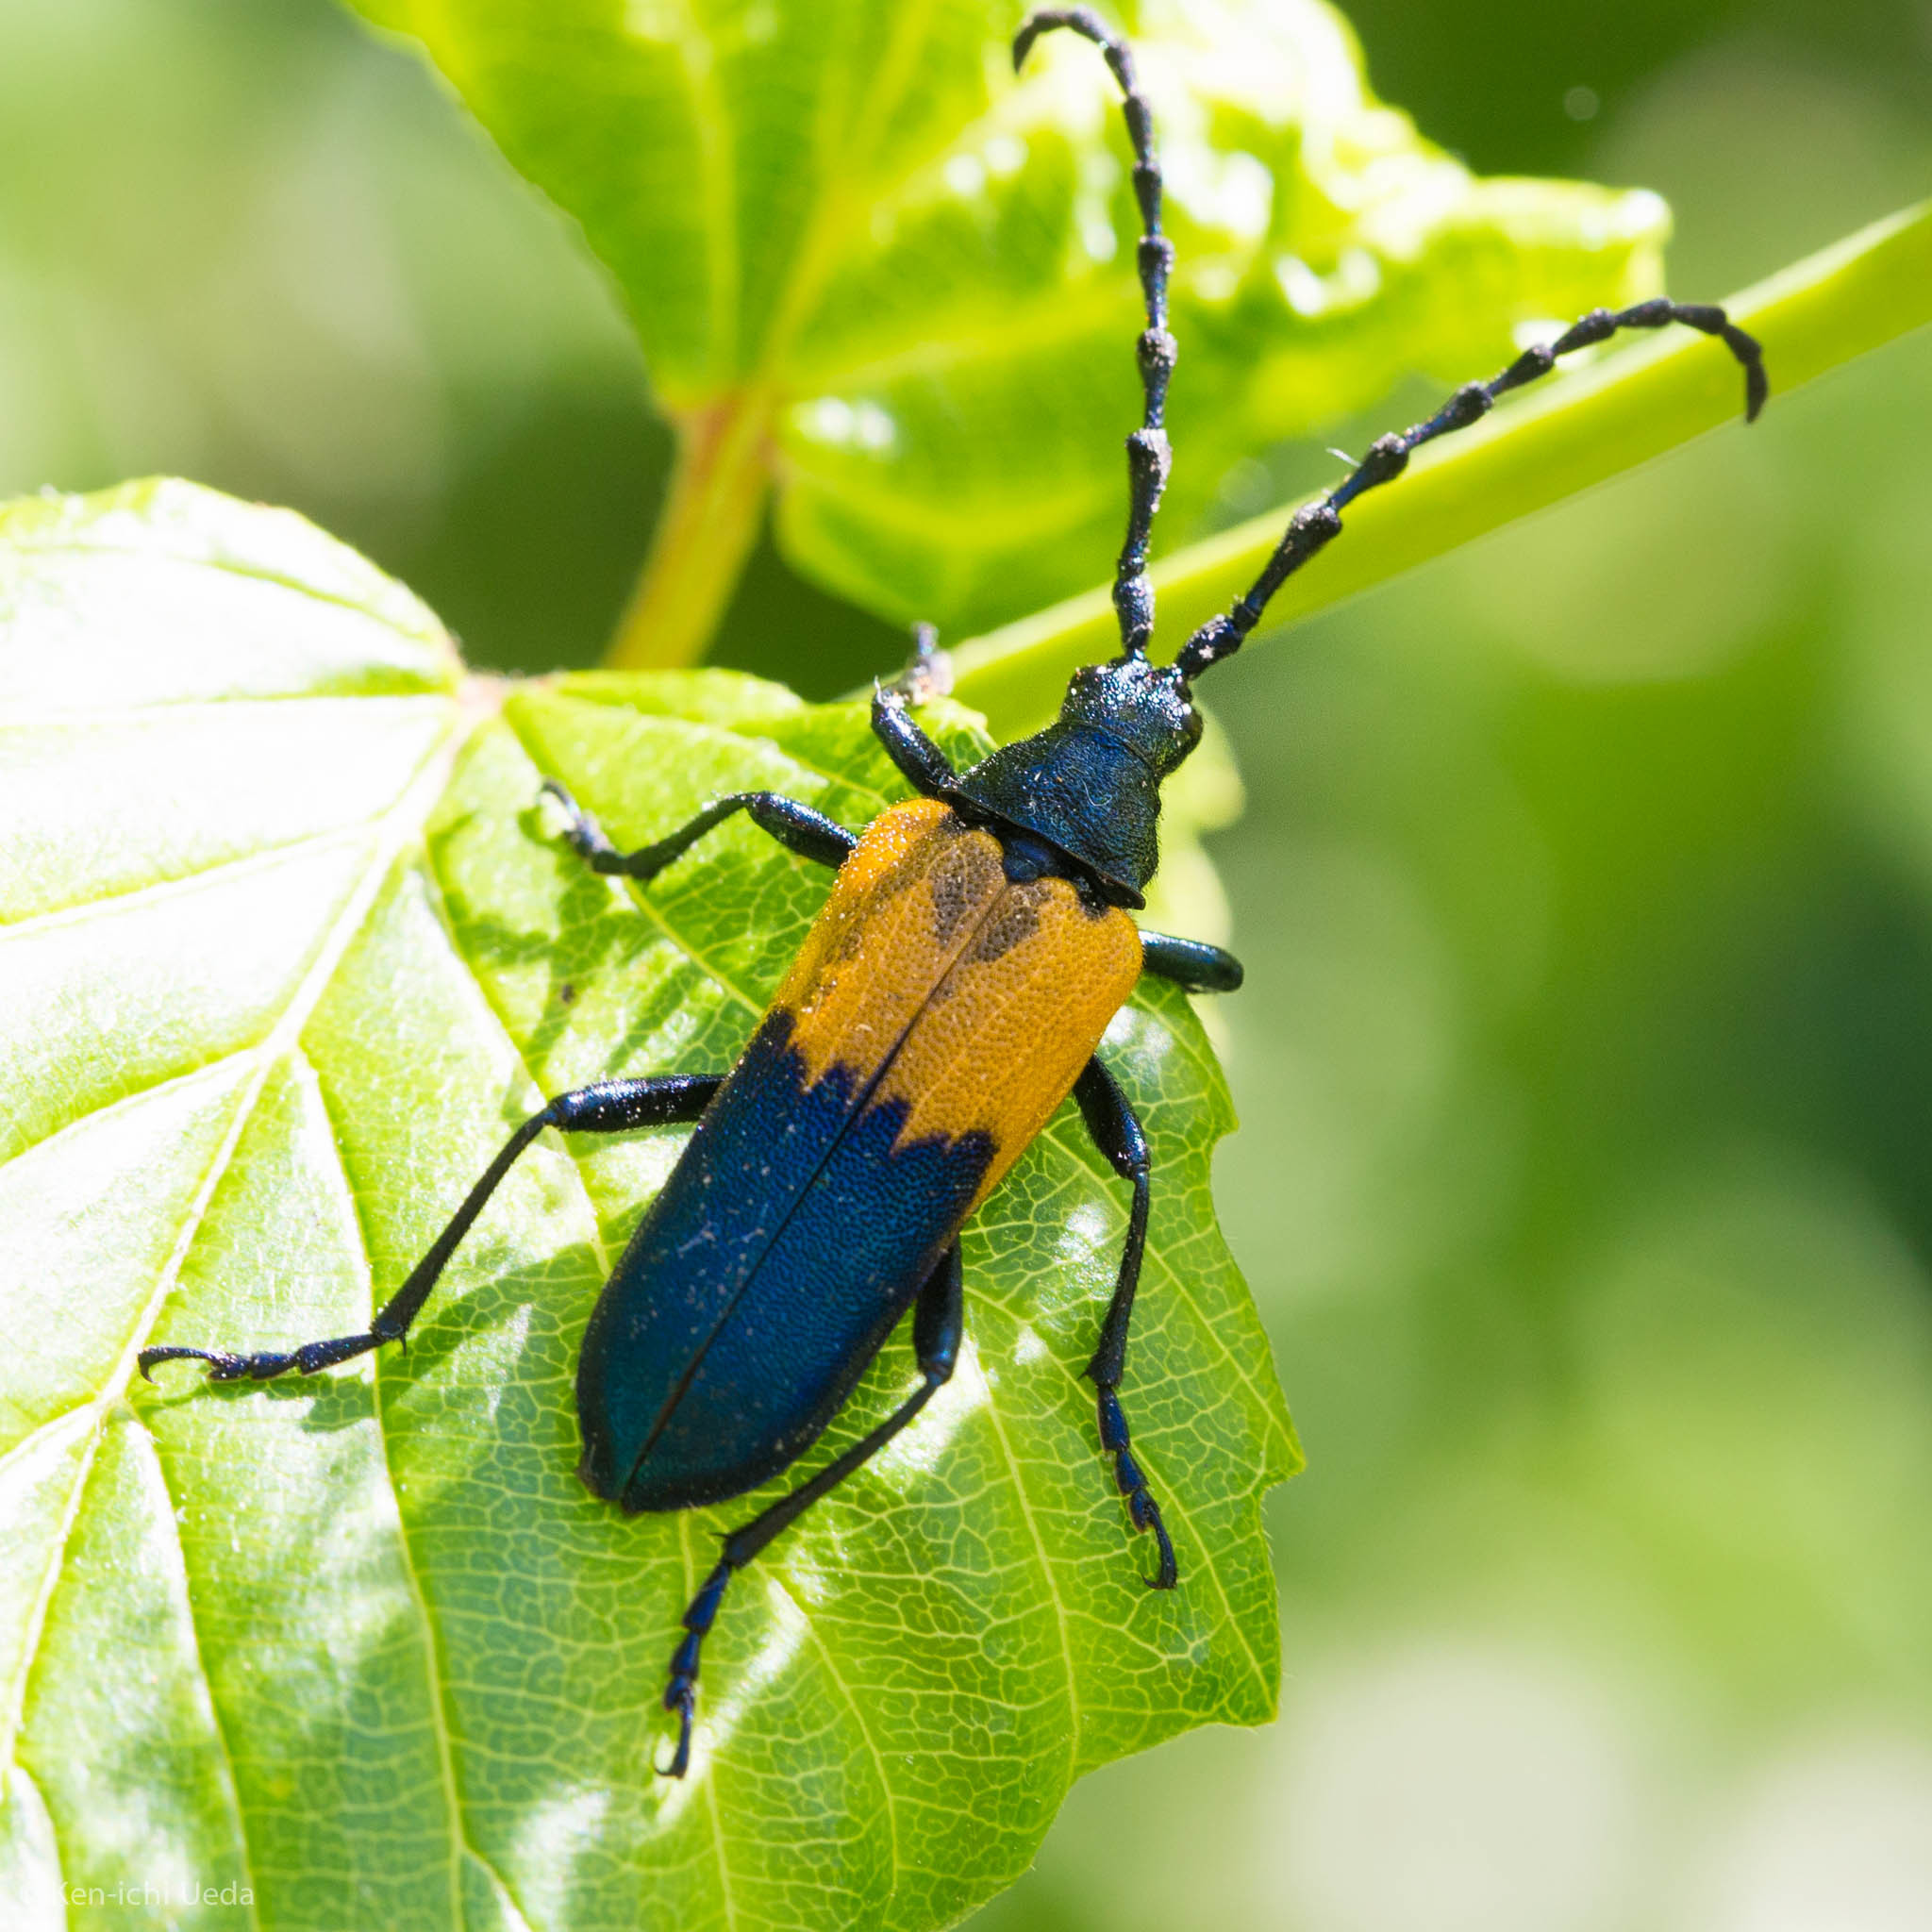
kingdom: Animalia
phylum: Arthropoda
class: Insecta
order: Coleoptera
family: Cerambycidae
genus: Desmocerus
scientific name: Desmocerus palliatus
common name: Eastern elderberry borer
